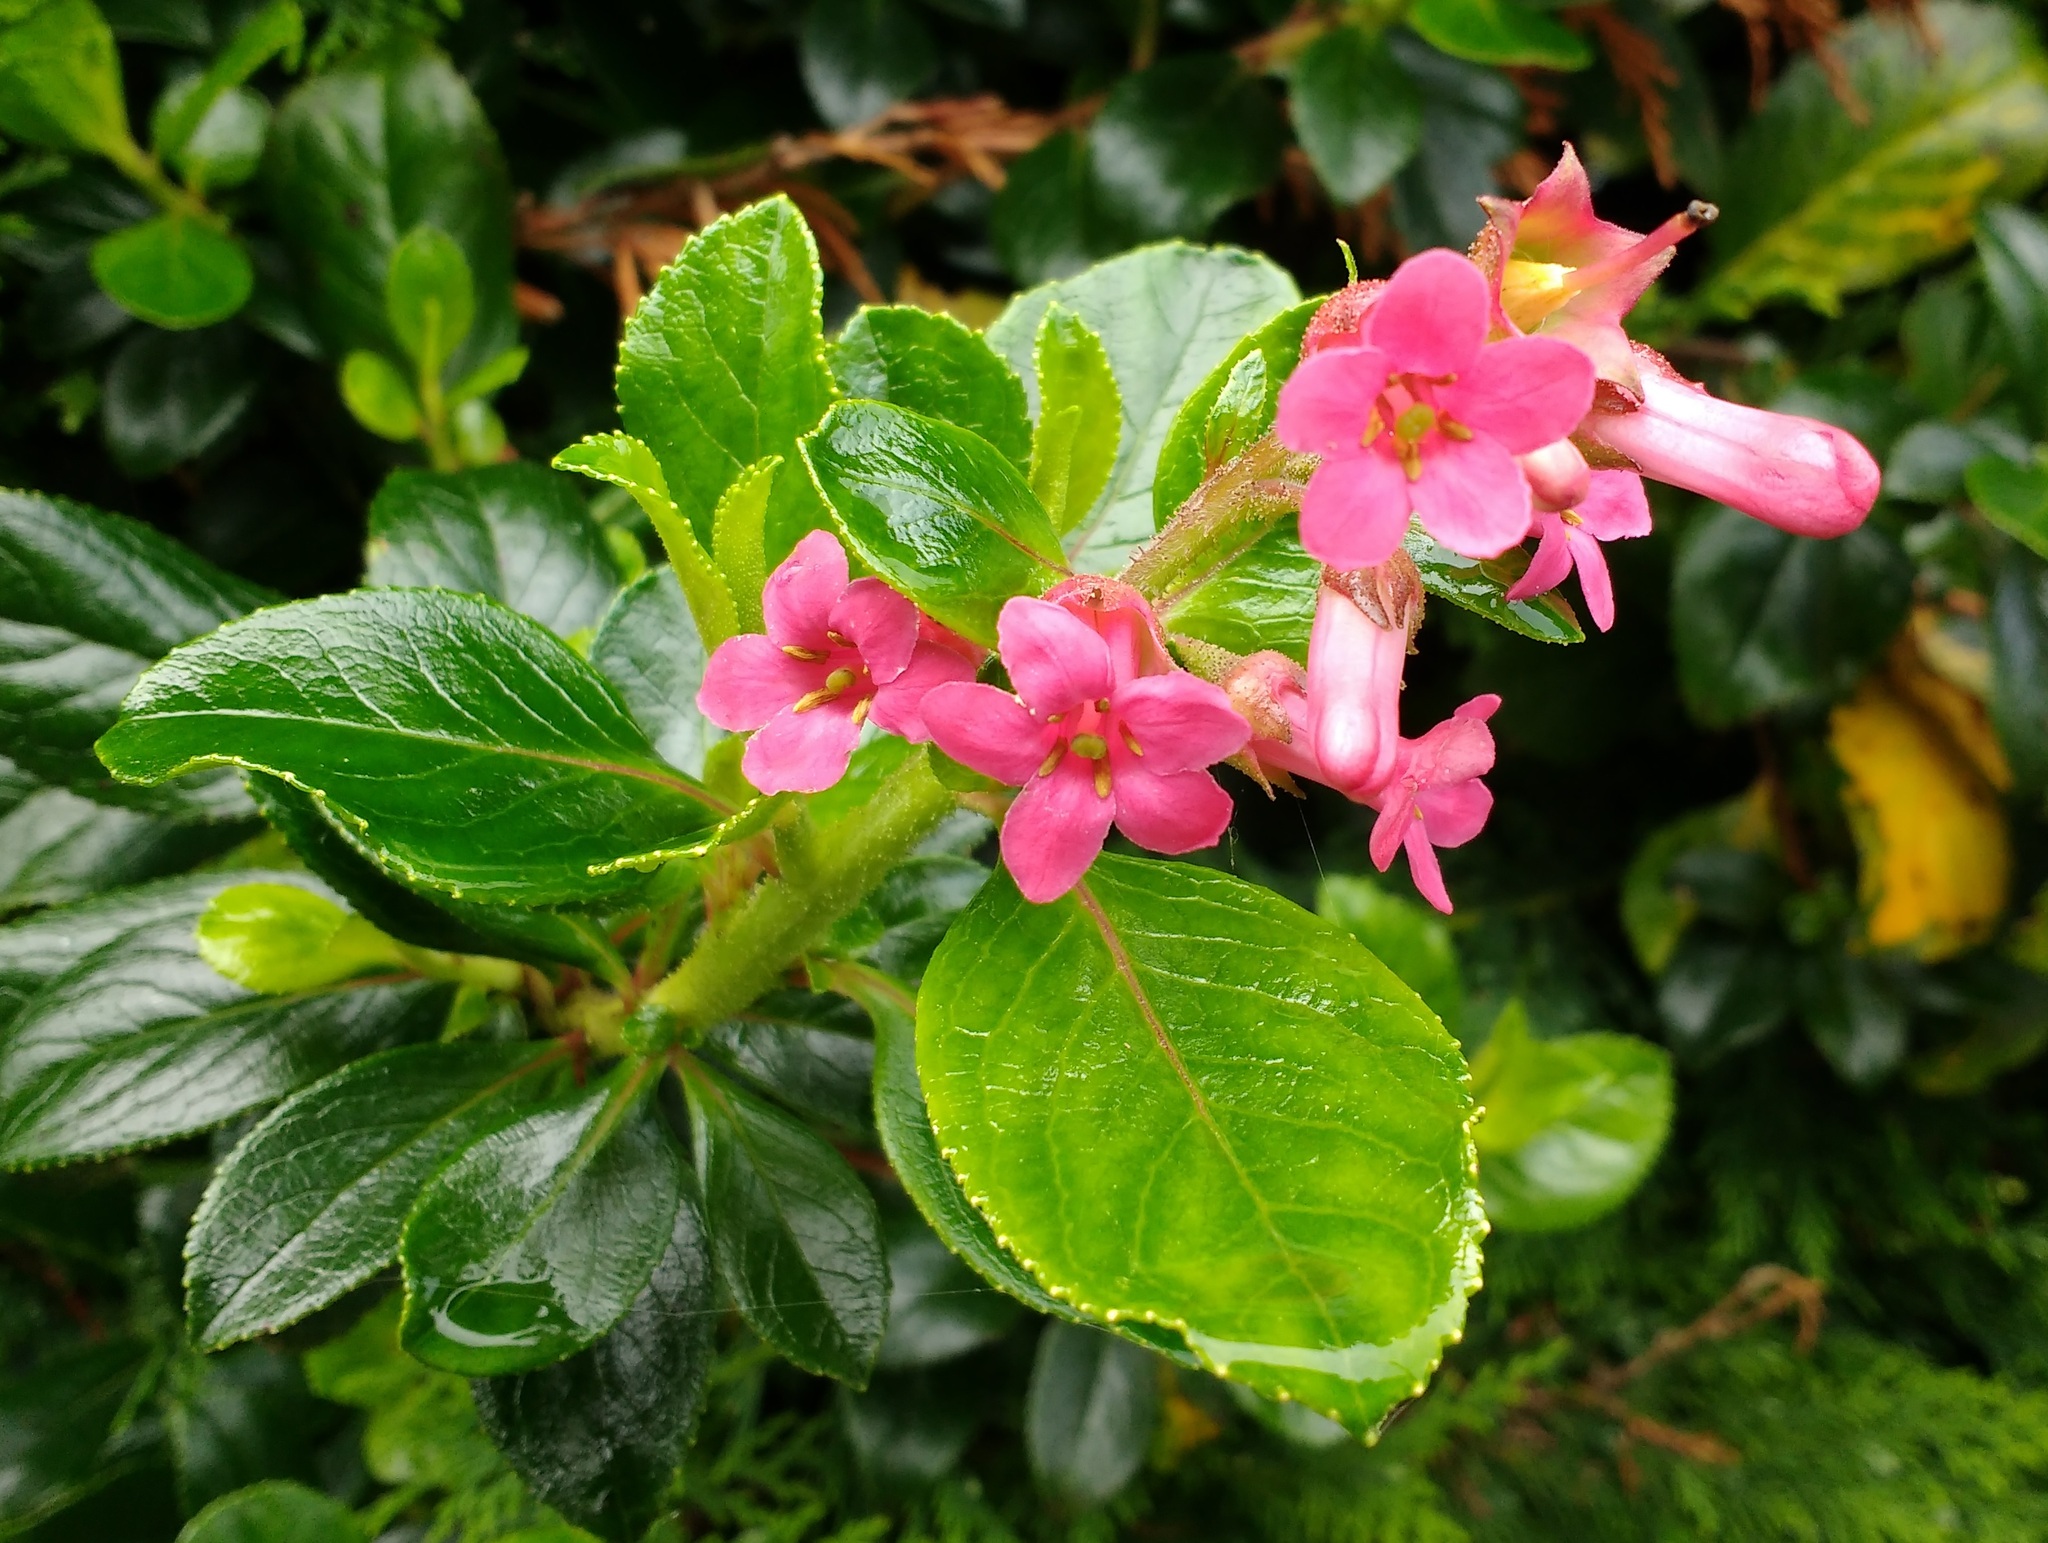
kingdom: Plantae
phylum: Tracheophyta
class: Magnoliopsida
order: Escalloniales
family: Escalloniaceae
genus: Escallonia
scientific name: Escallonia rubra
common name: Redclaws
